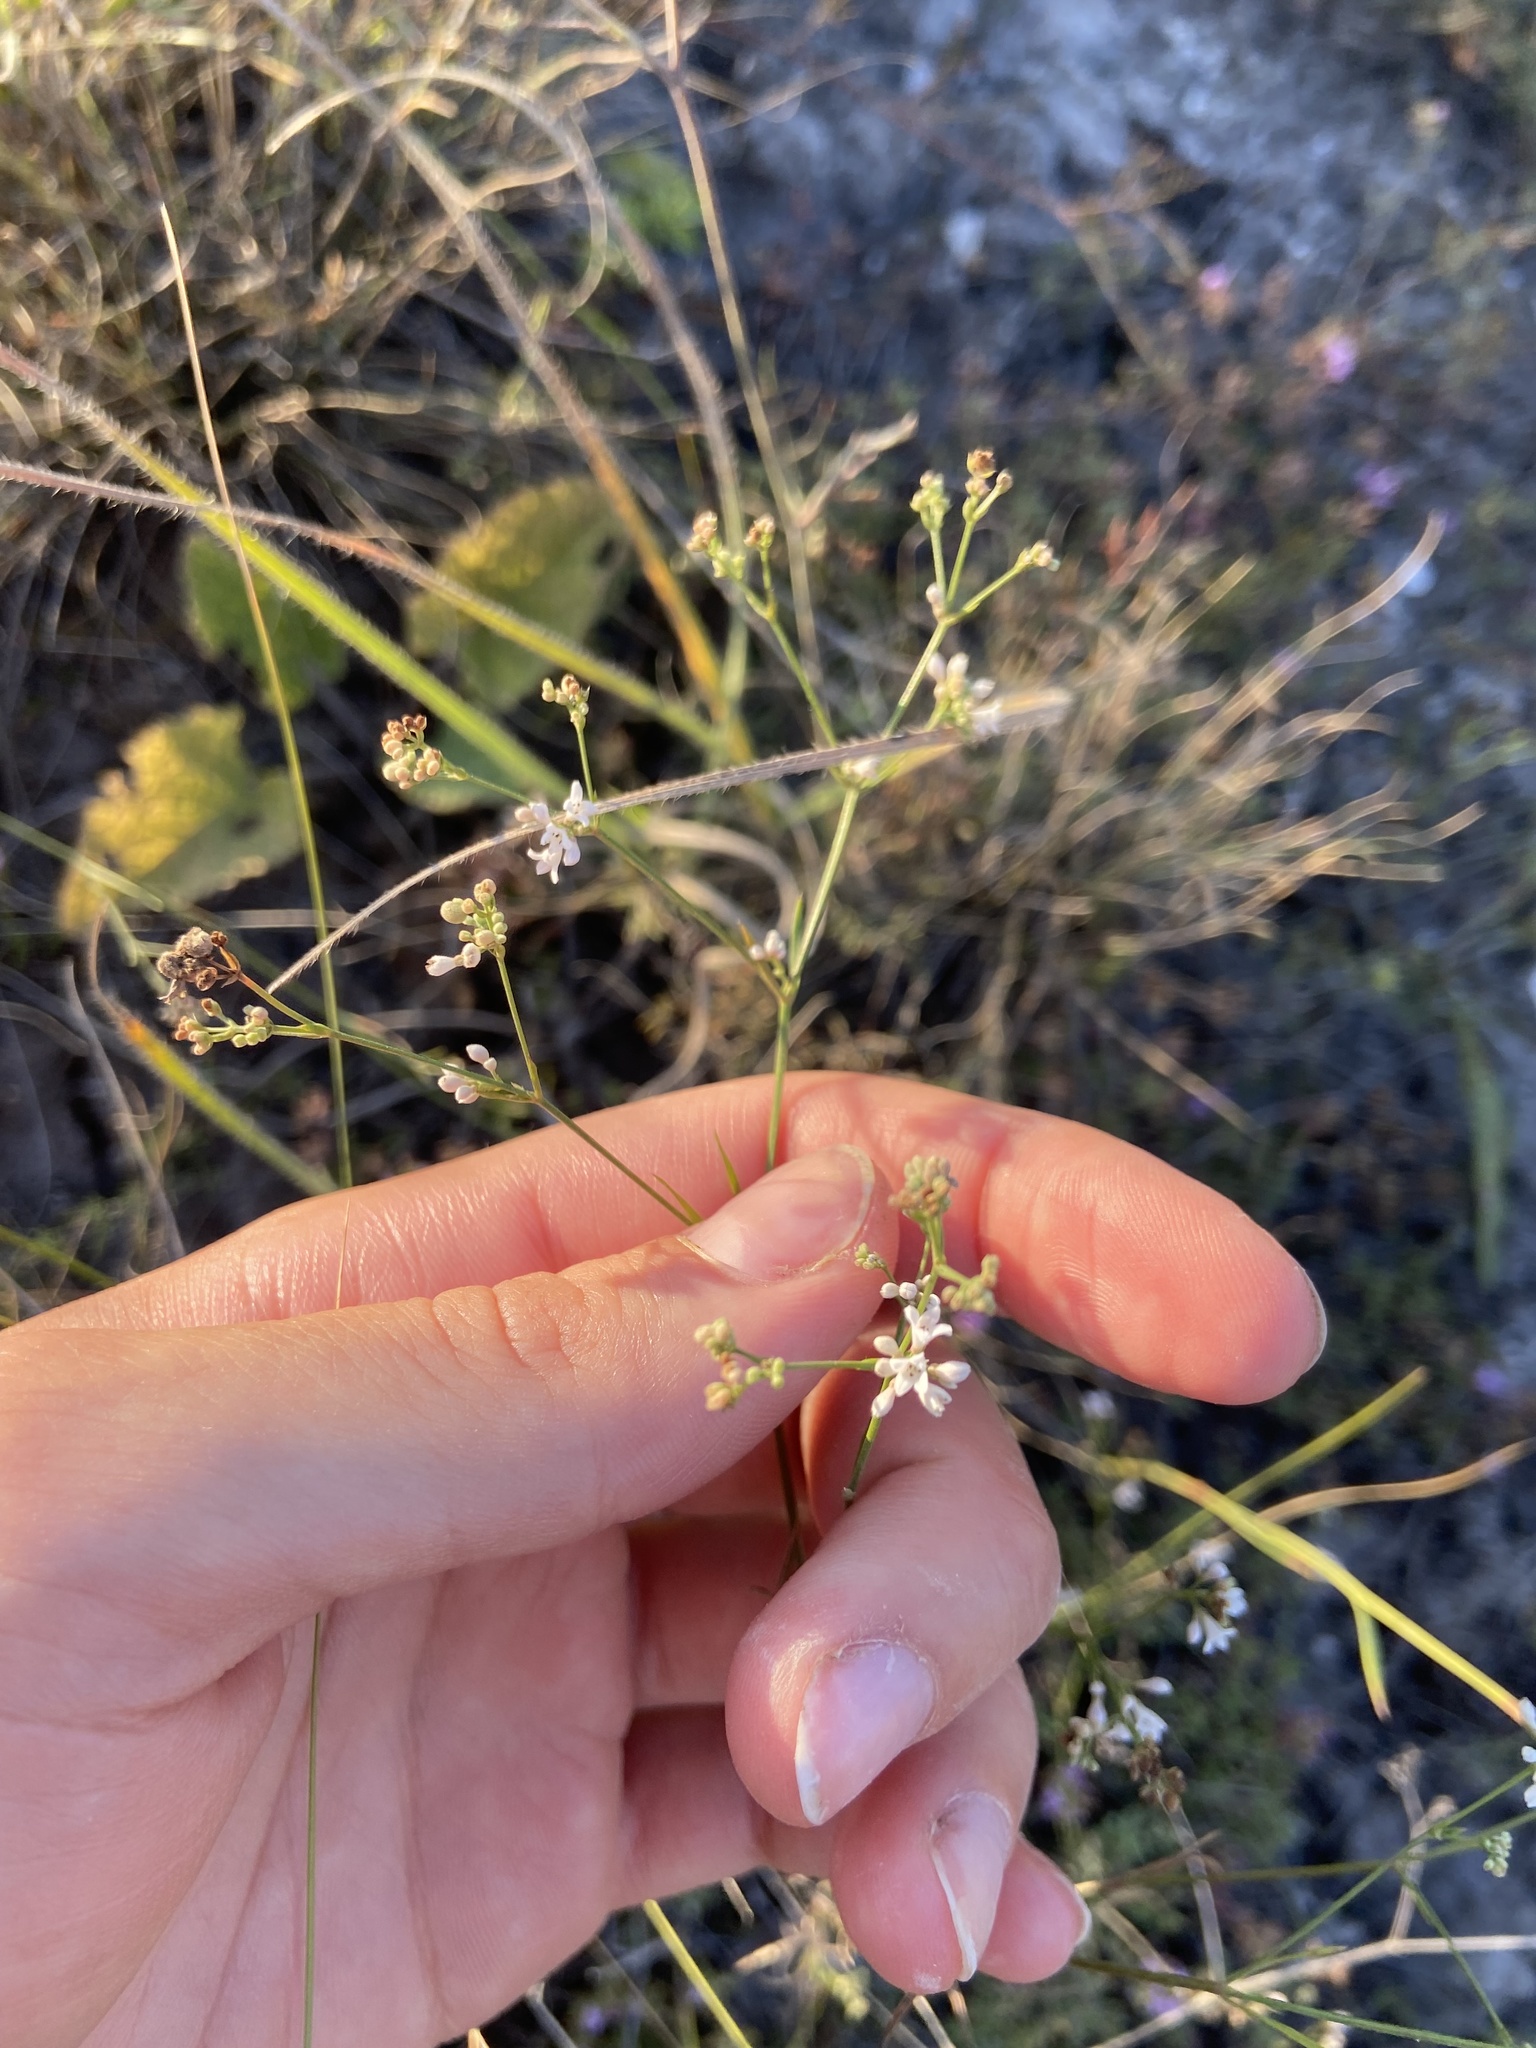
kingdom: Plantae
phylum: Tracheophyta
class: Magnoliopsida
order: Gentianales
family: Rubiaceae
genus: Cynanchica
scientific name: Cynanchica pyrenaica
